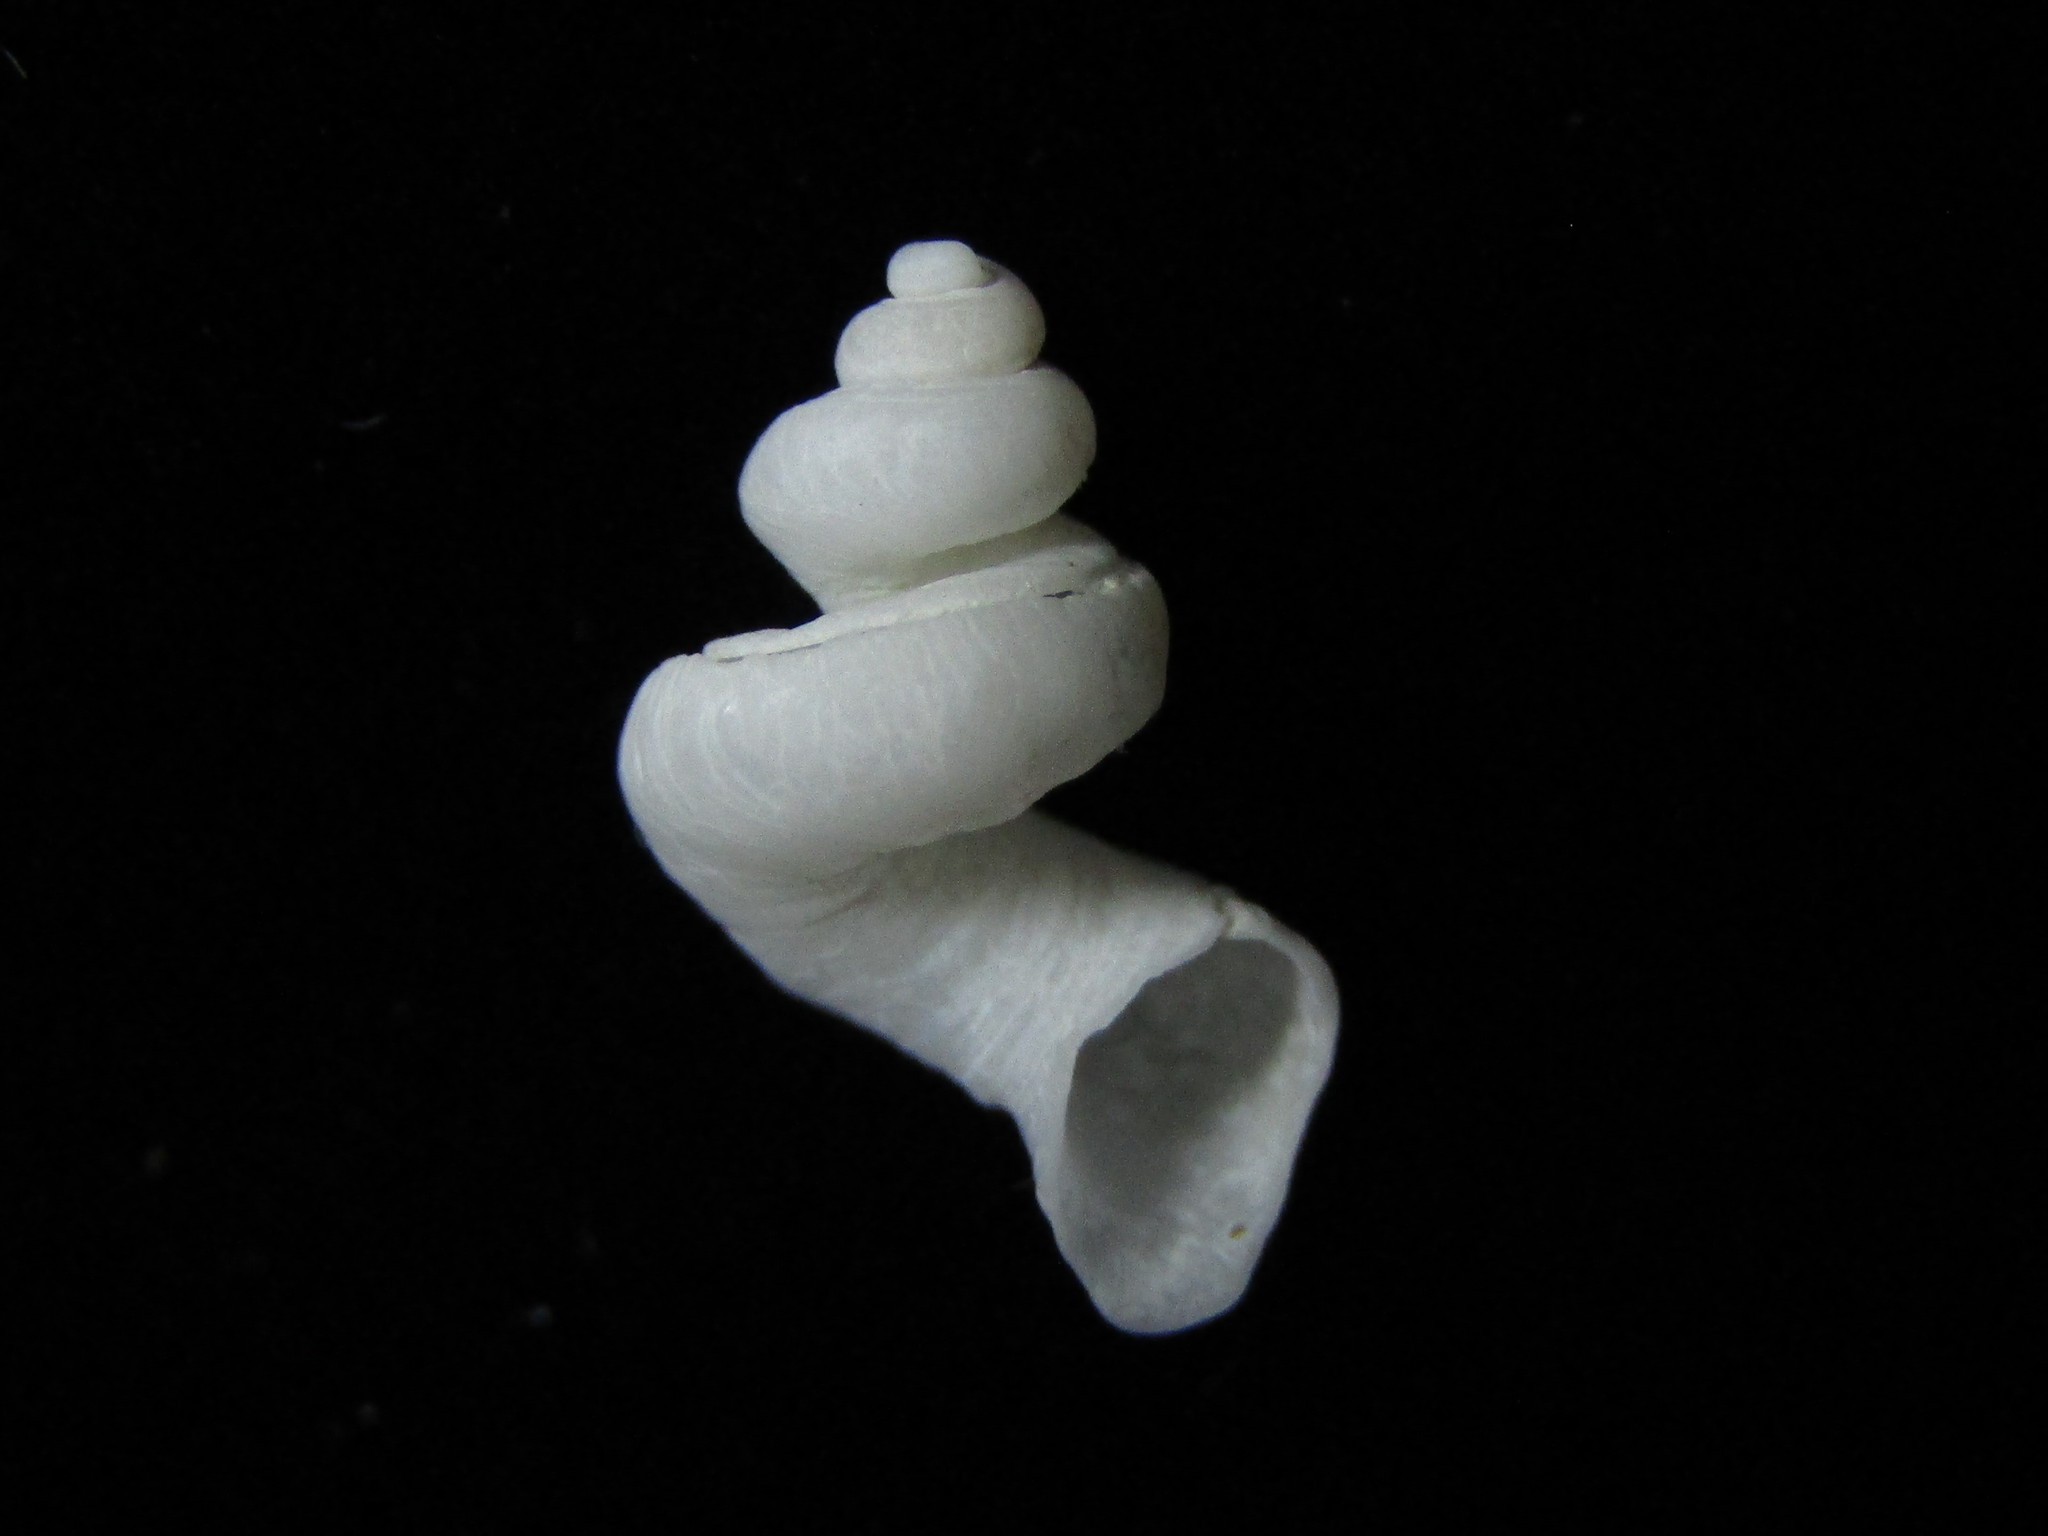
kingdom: Animalia
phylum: Mollusca
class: Gastropoda
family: Siliquariidae
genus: Tenagodus
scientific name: Tenagodus weldii
